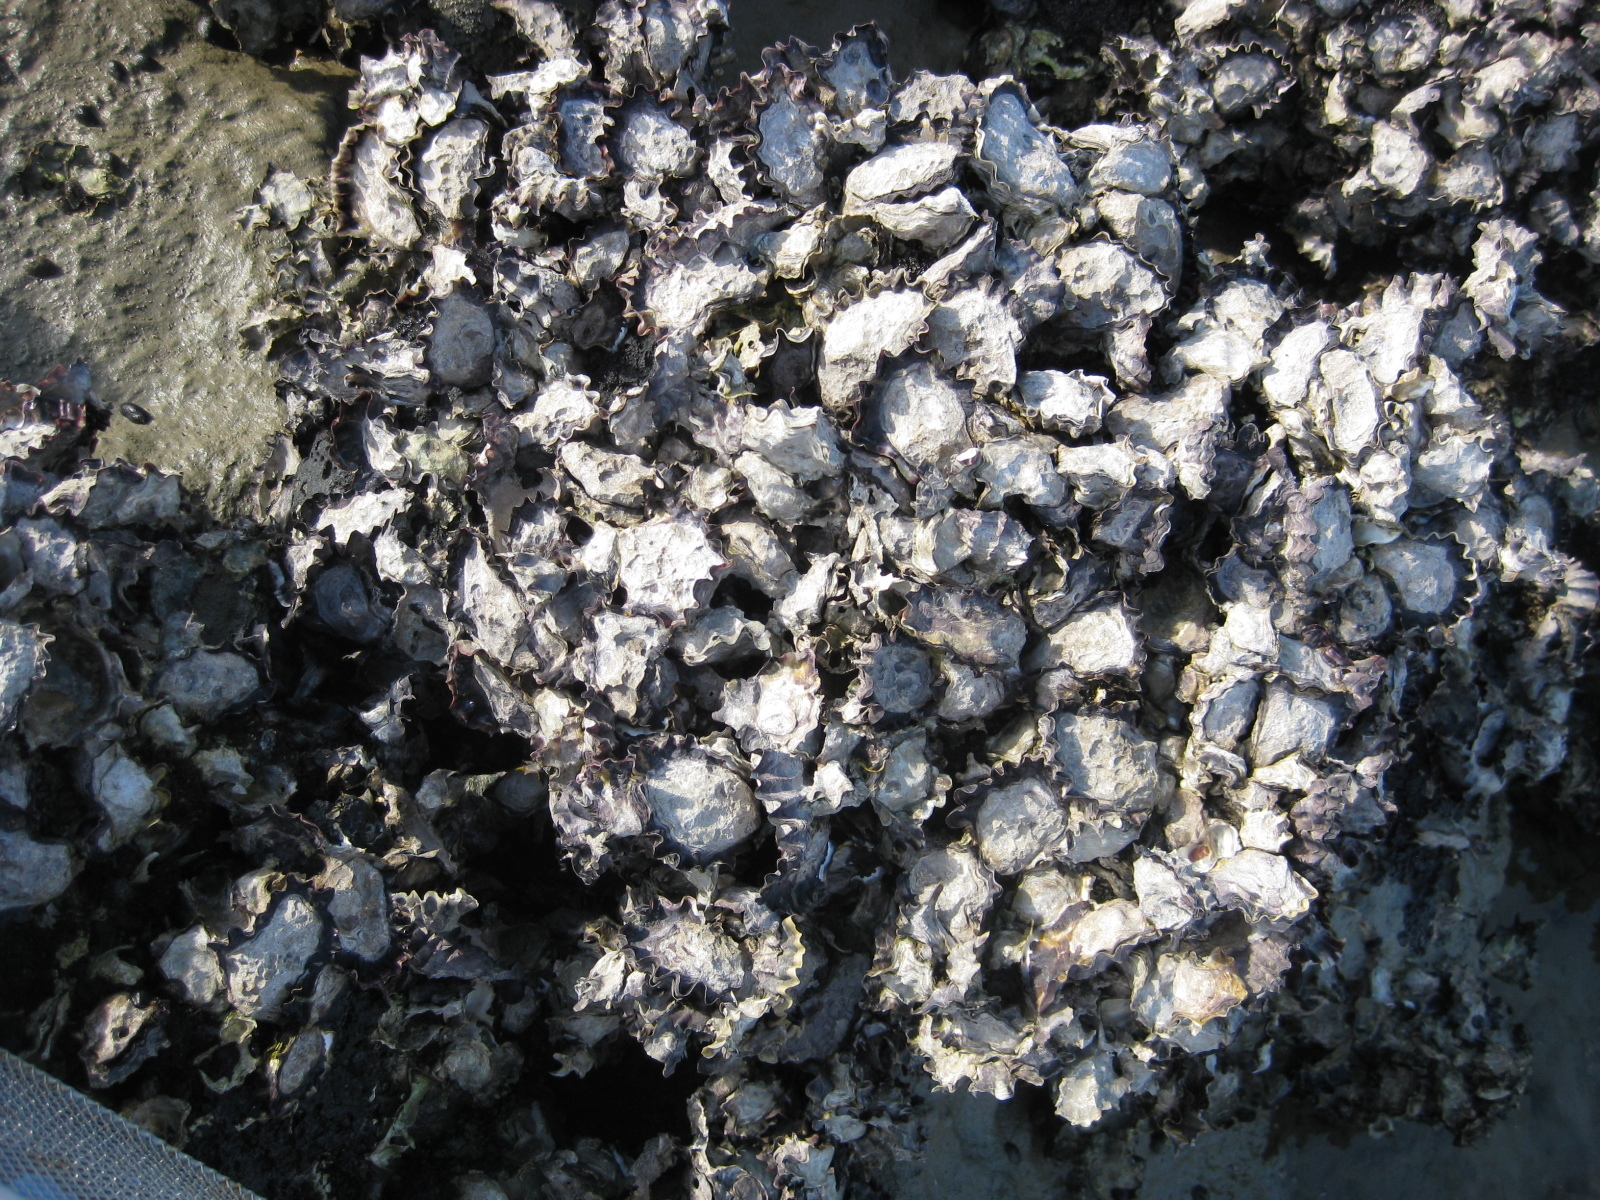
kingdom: Animalia
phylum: Mollusca
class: Bivalvia
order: Ostreida
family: Ostreidae
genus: Saccostrea
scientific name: Saccostrea glomerata
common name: Sydney cupped oyster
